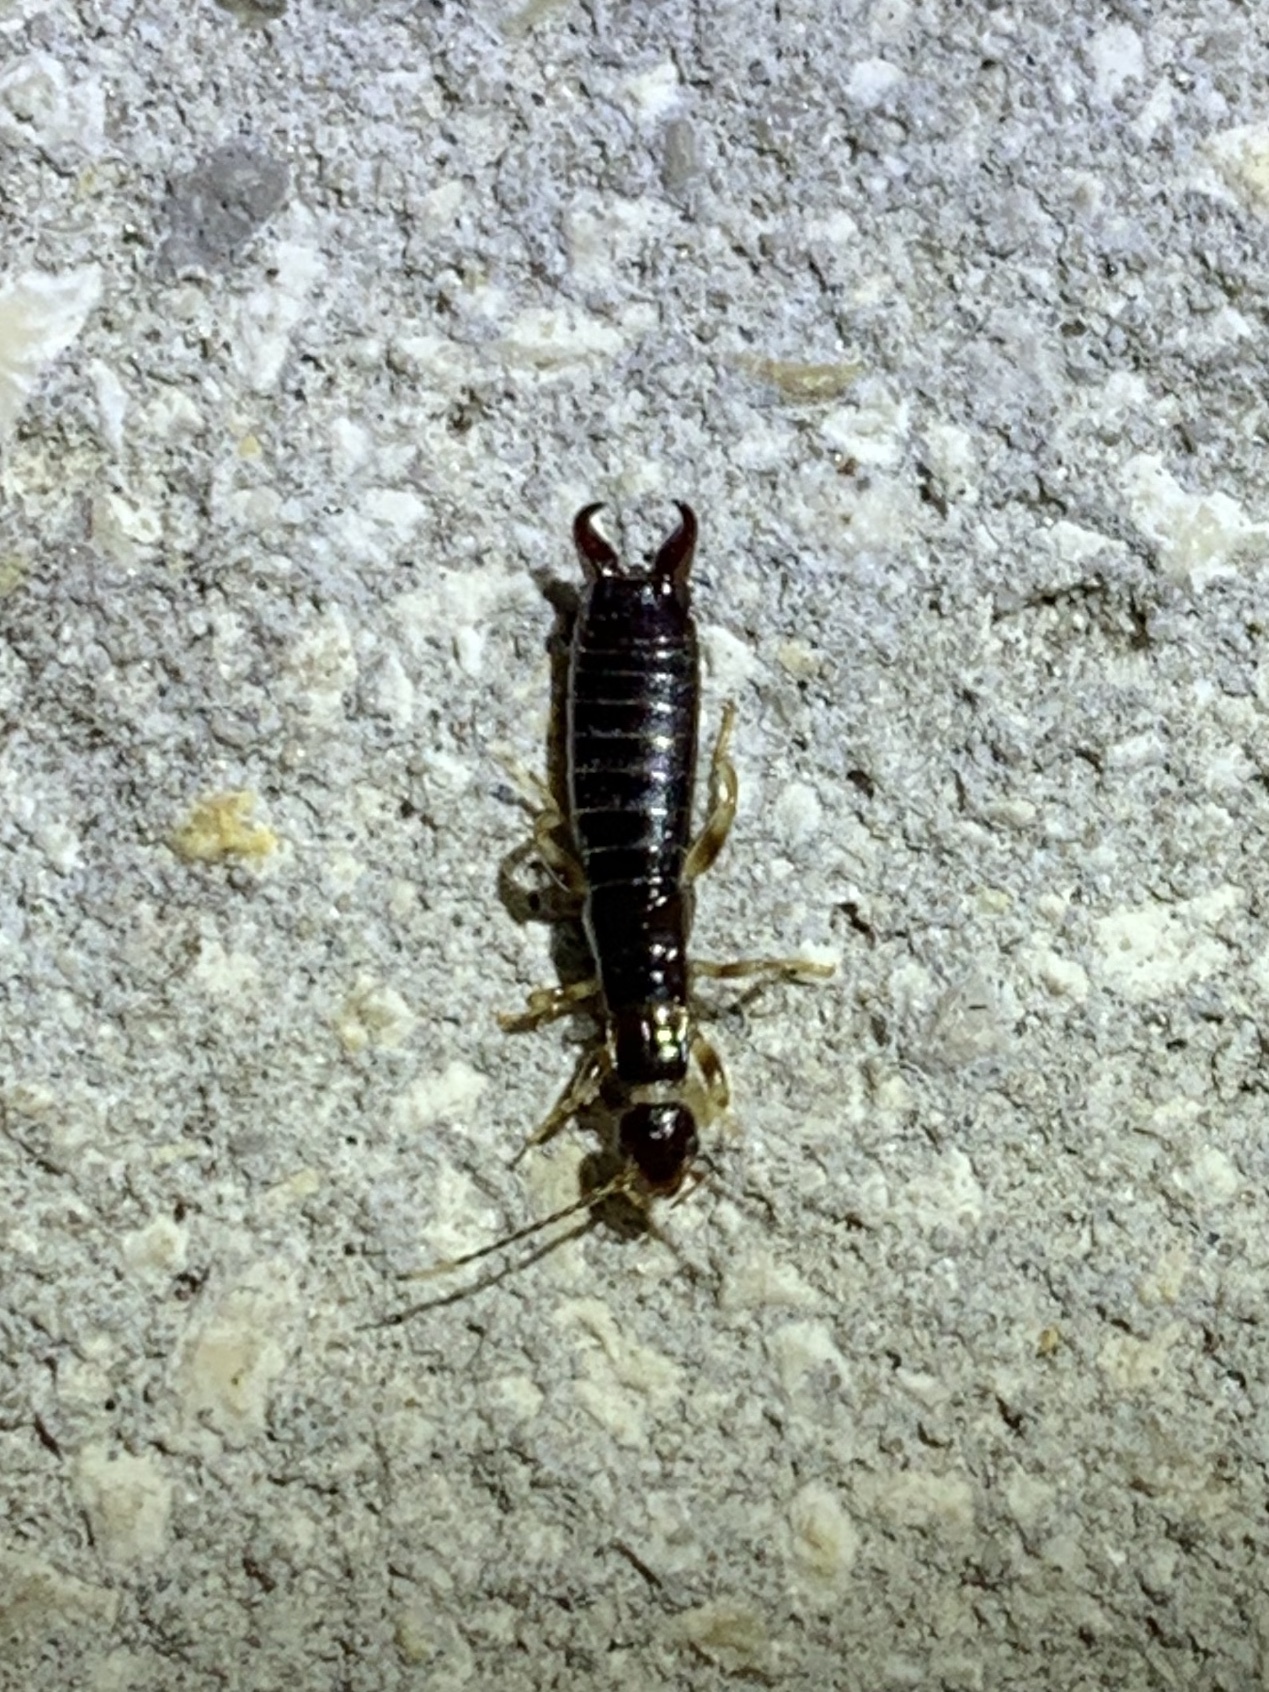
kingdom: Animalia
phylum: Arthropoda
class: Insecta
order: Dermaptera
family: Anisolabididae
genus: Euborellia
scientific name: Euborellia annulipes
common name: Ringlegged earwig
